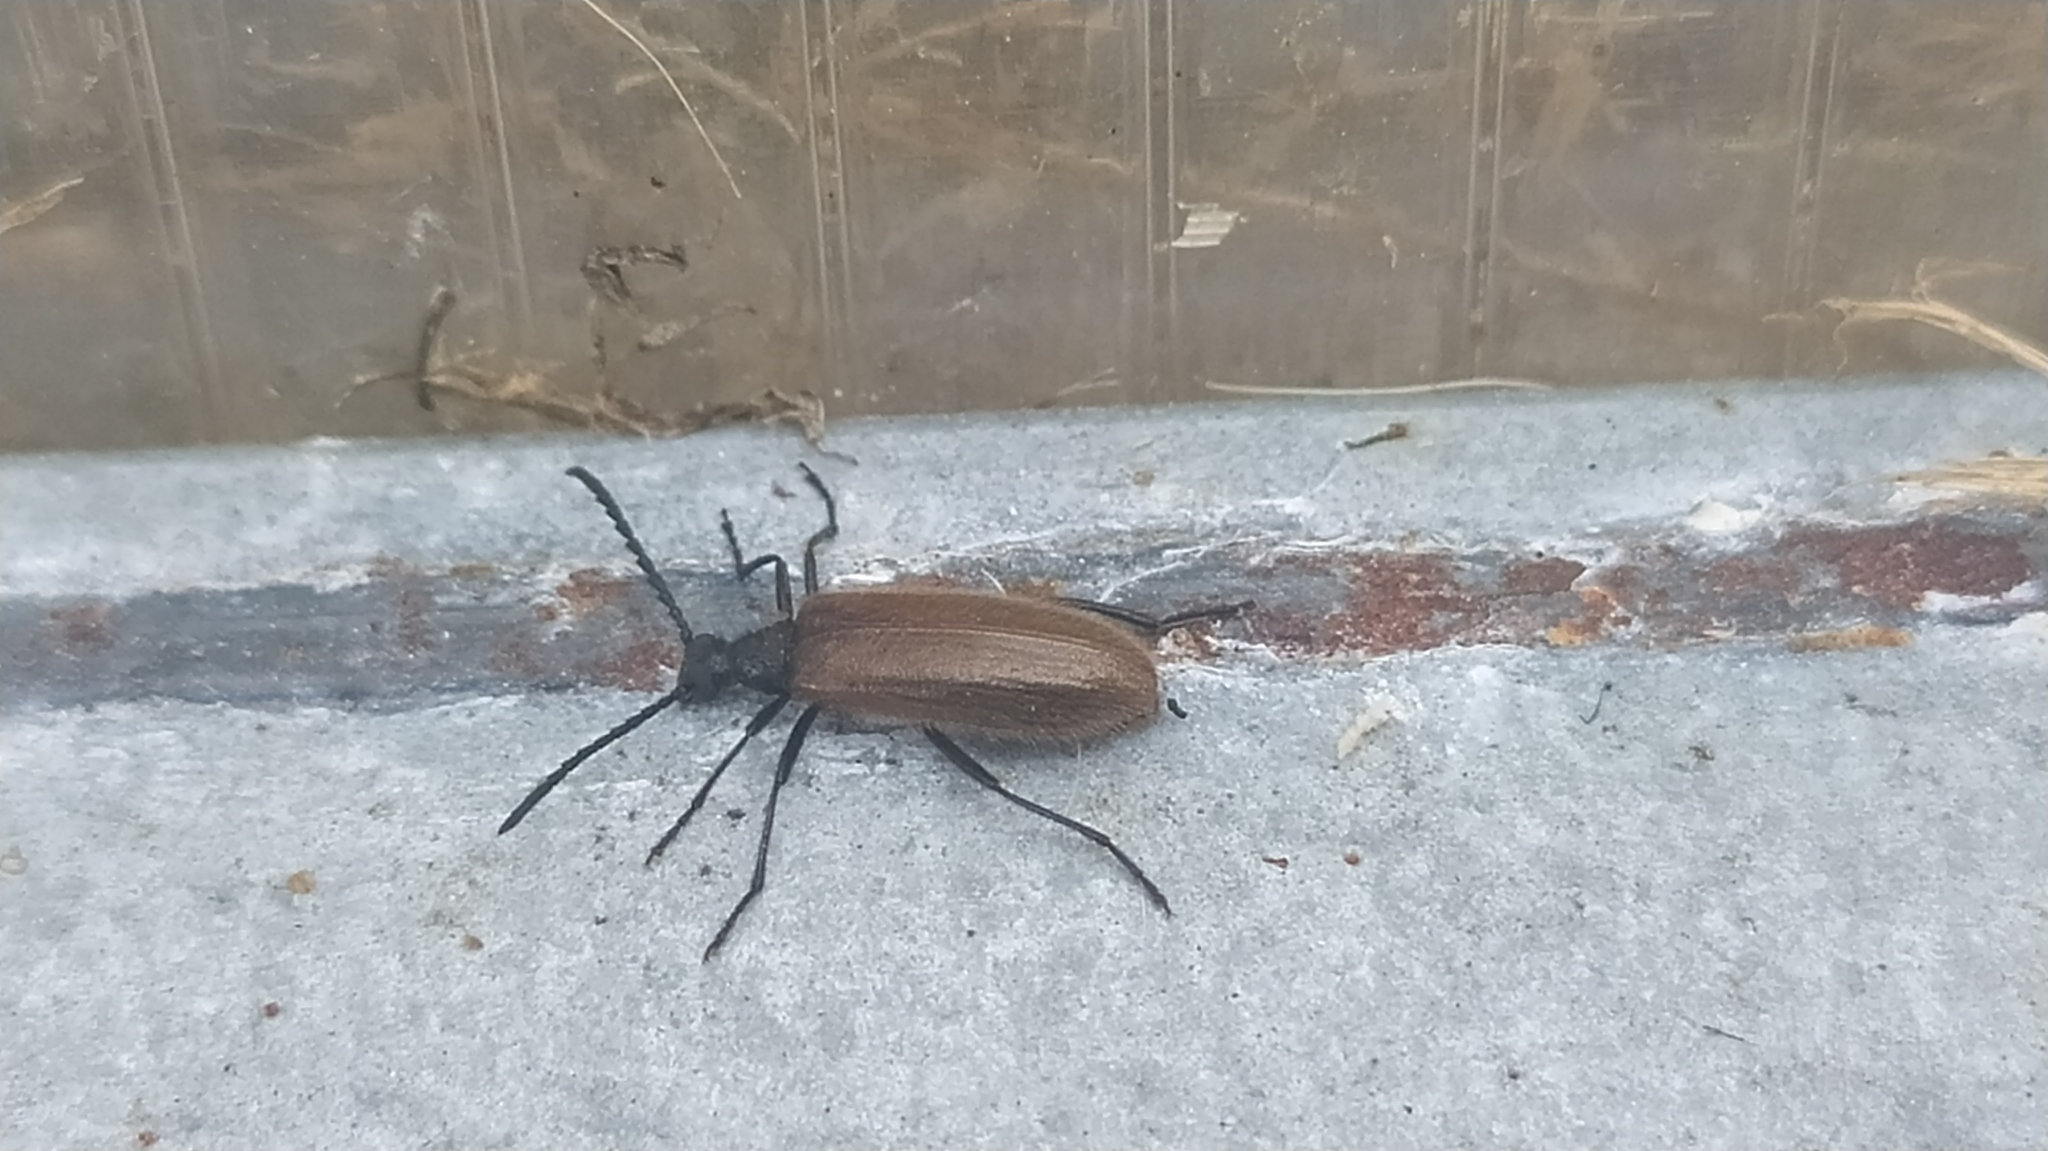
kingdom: Animalia
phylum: Arthropoda
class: Insecta
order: Coleoptera
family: Tenebrionidae
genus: Lagria
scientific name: Lagria hirta
